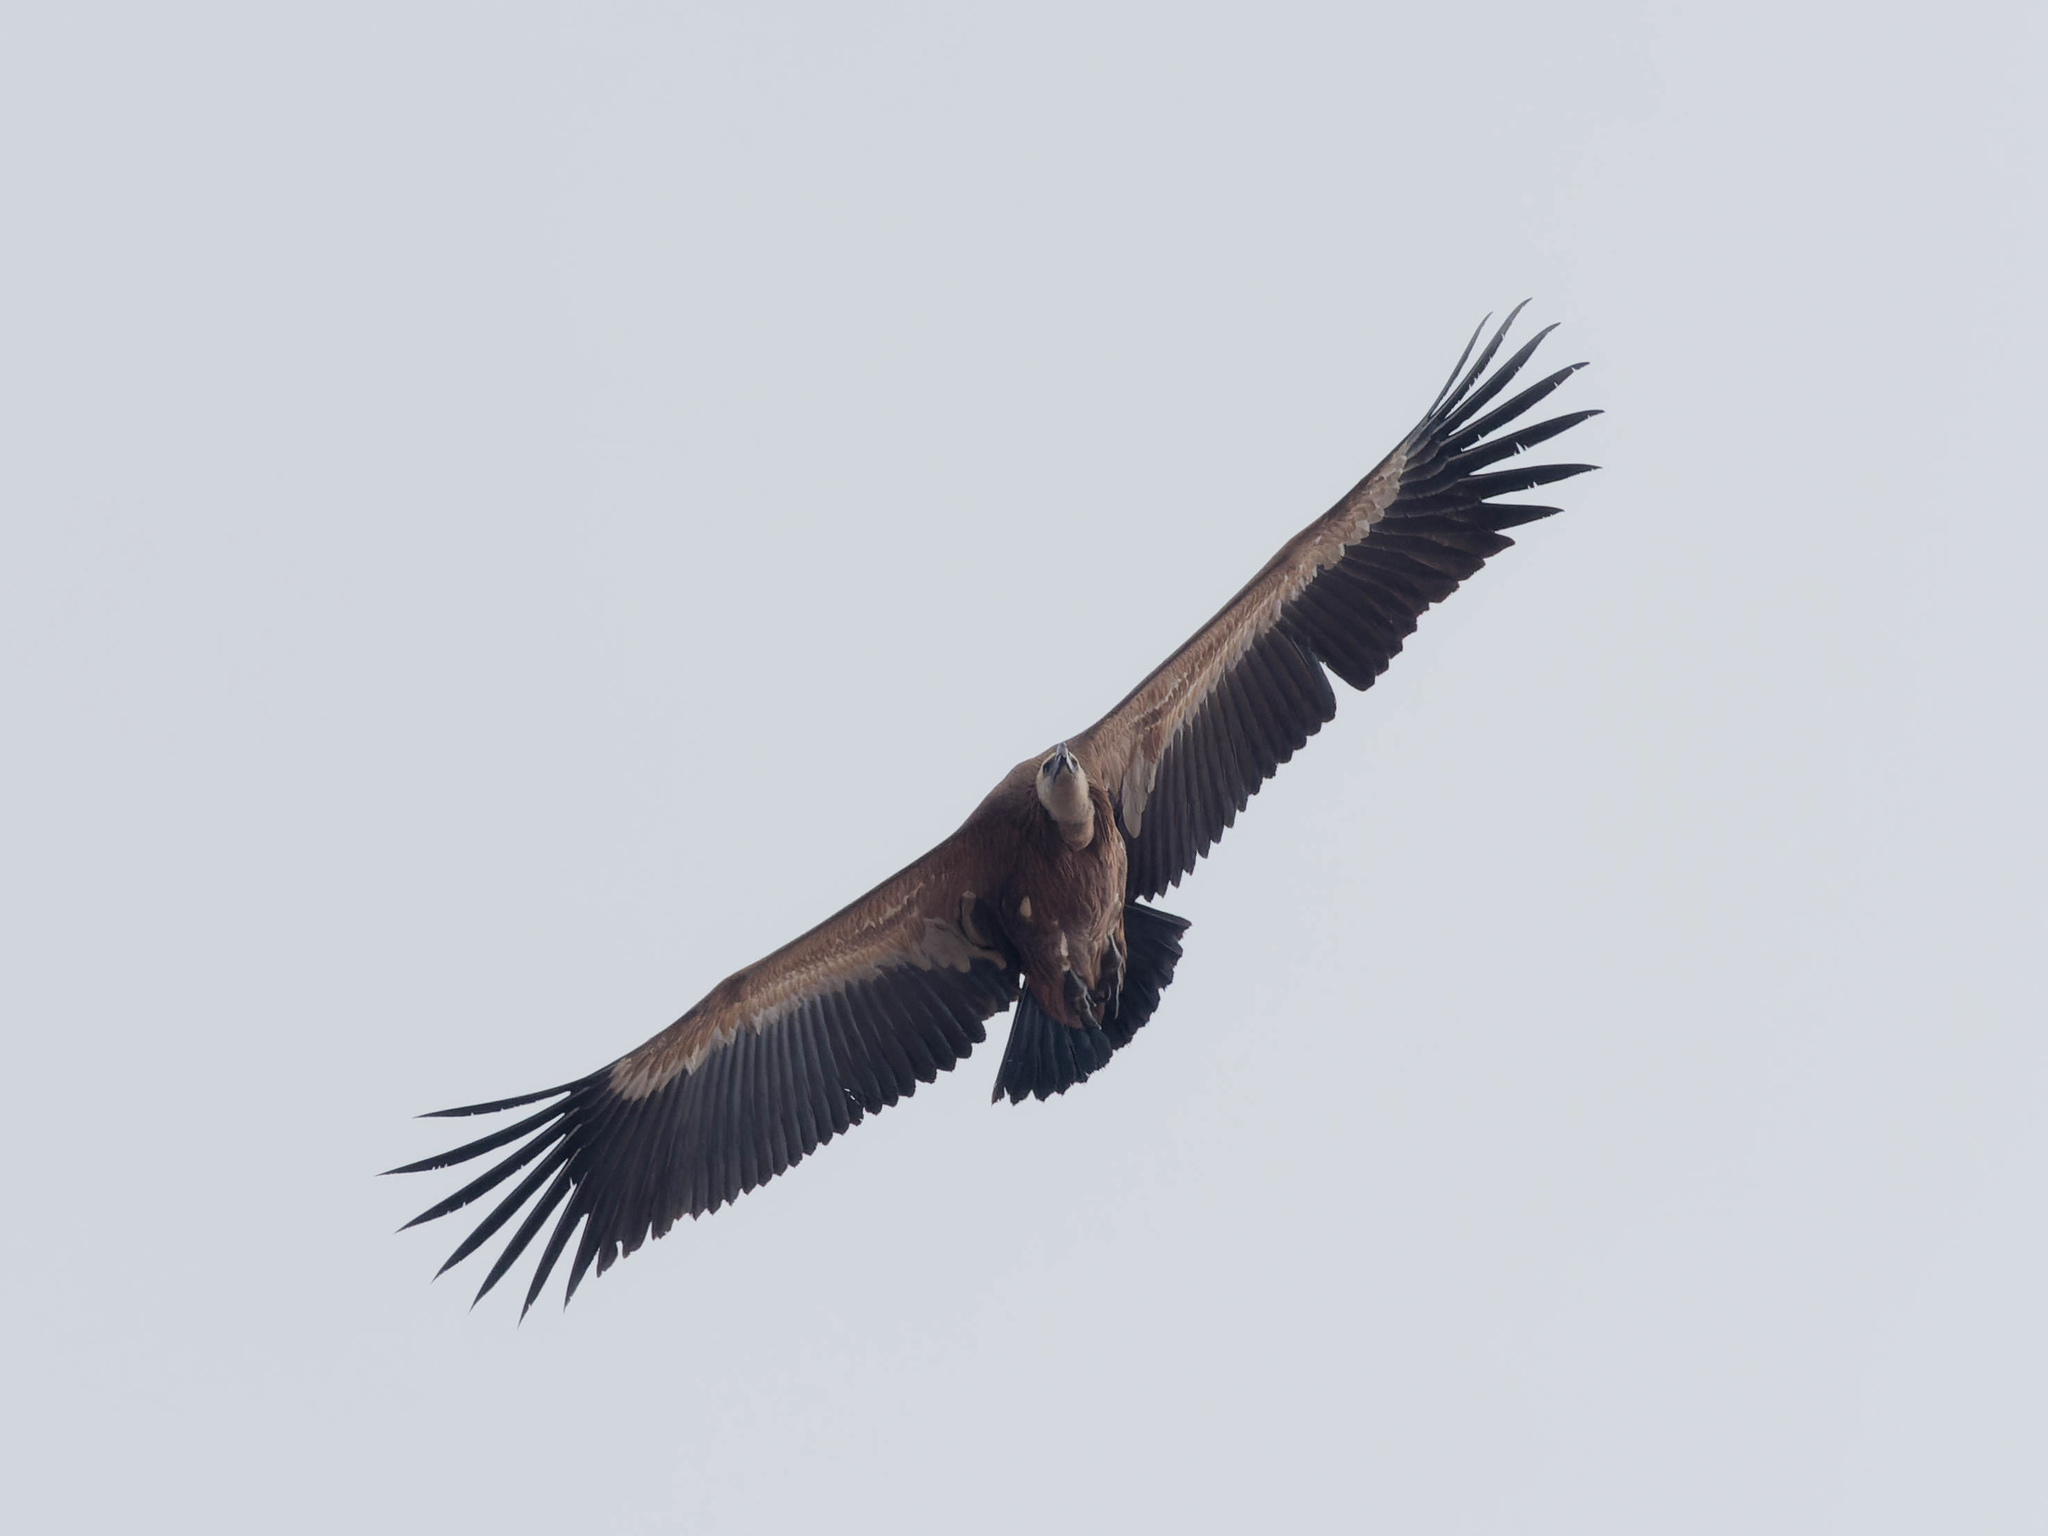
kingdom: Animalia
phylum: Chordata
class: Aves
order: Accipitriformes
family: Accipitridae
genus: Gyps
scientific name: Gyps fulvus
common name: Griffon vulture
